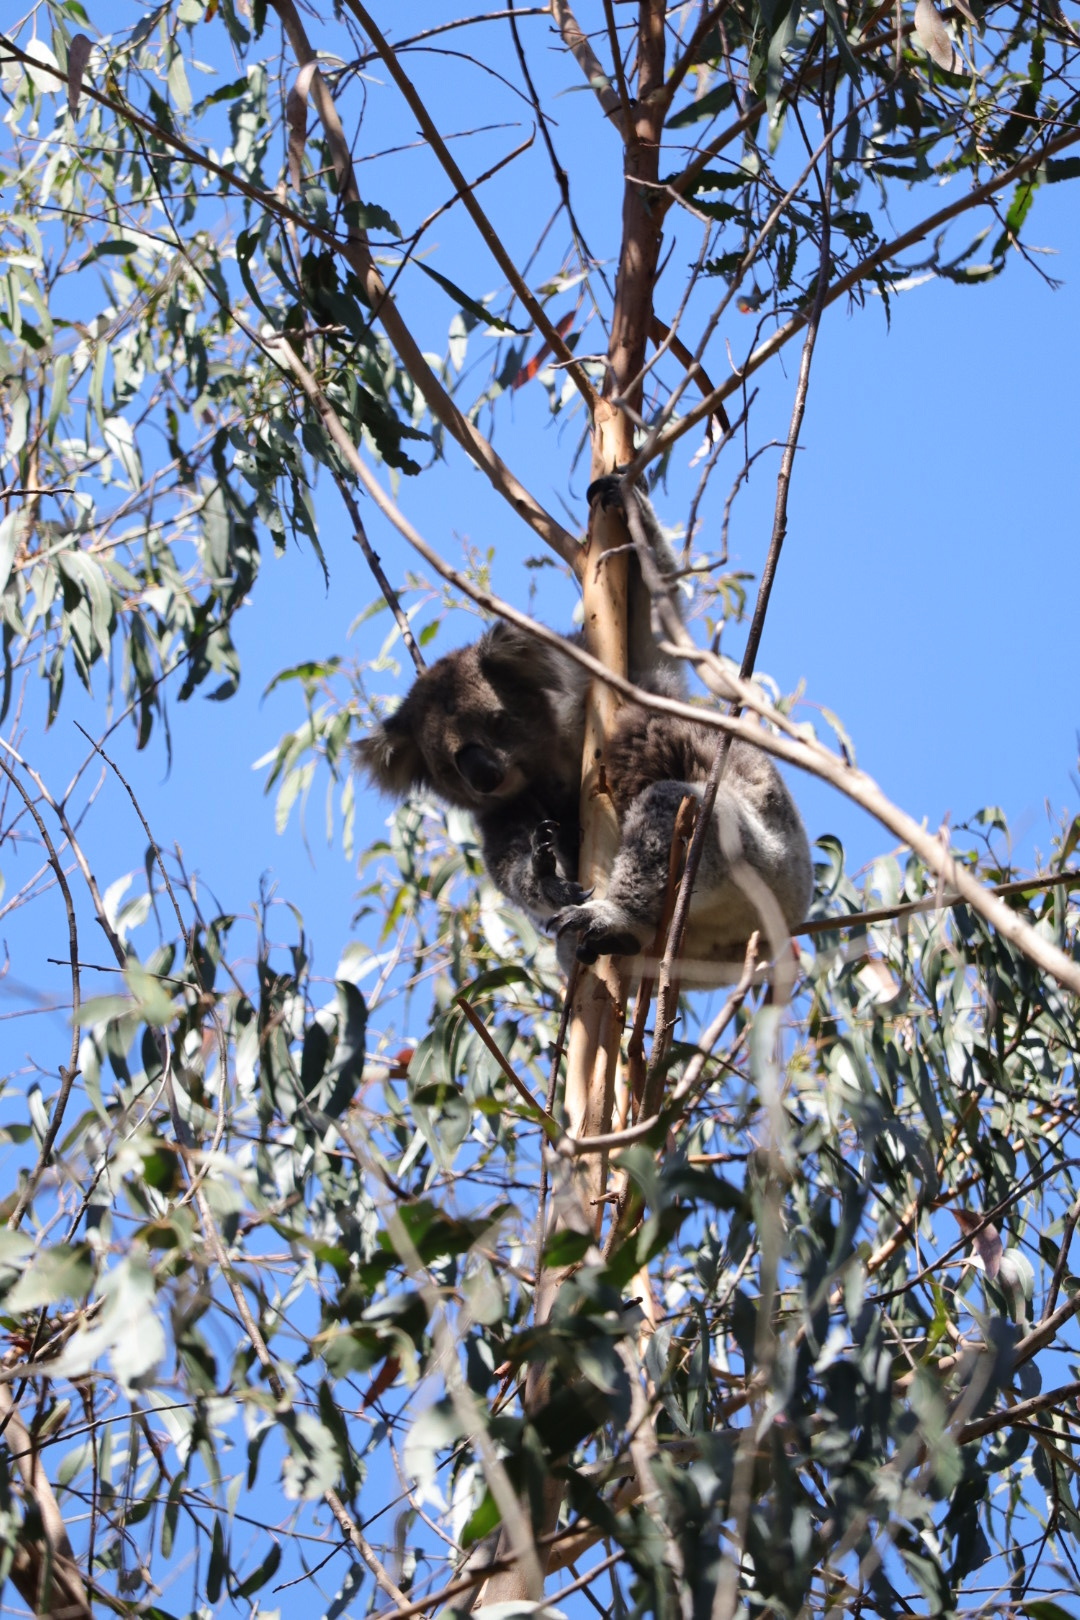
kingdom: Animalia
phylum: Chordata
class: Mammalia
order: Diprotodontia
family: Phascolarctidae
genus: Phascolarctos
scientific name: Phascolarctos cinereus
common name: Koala
